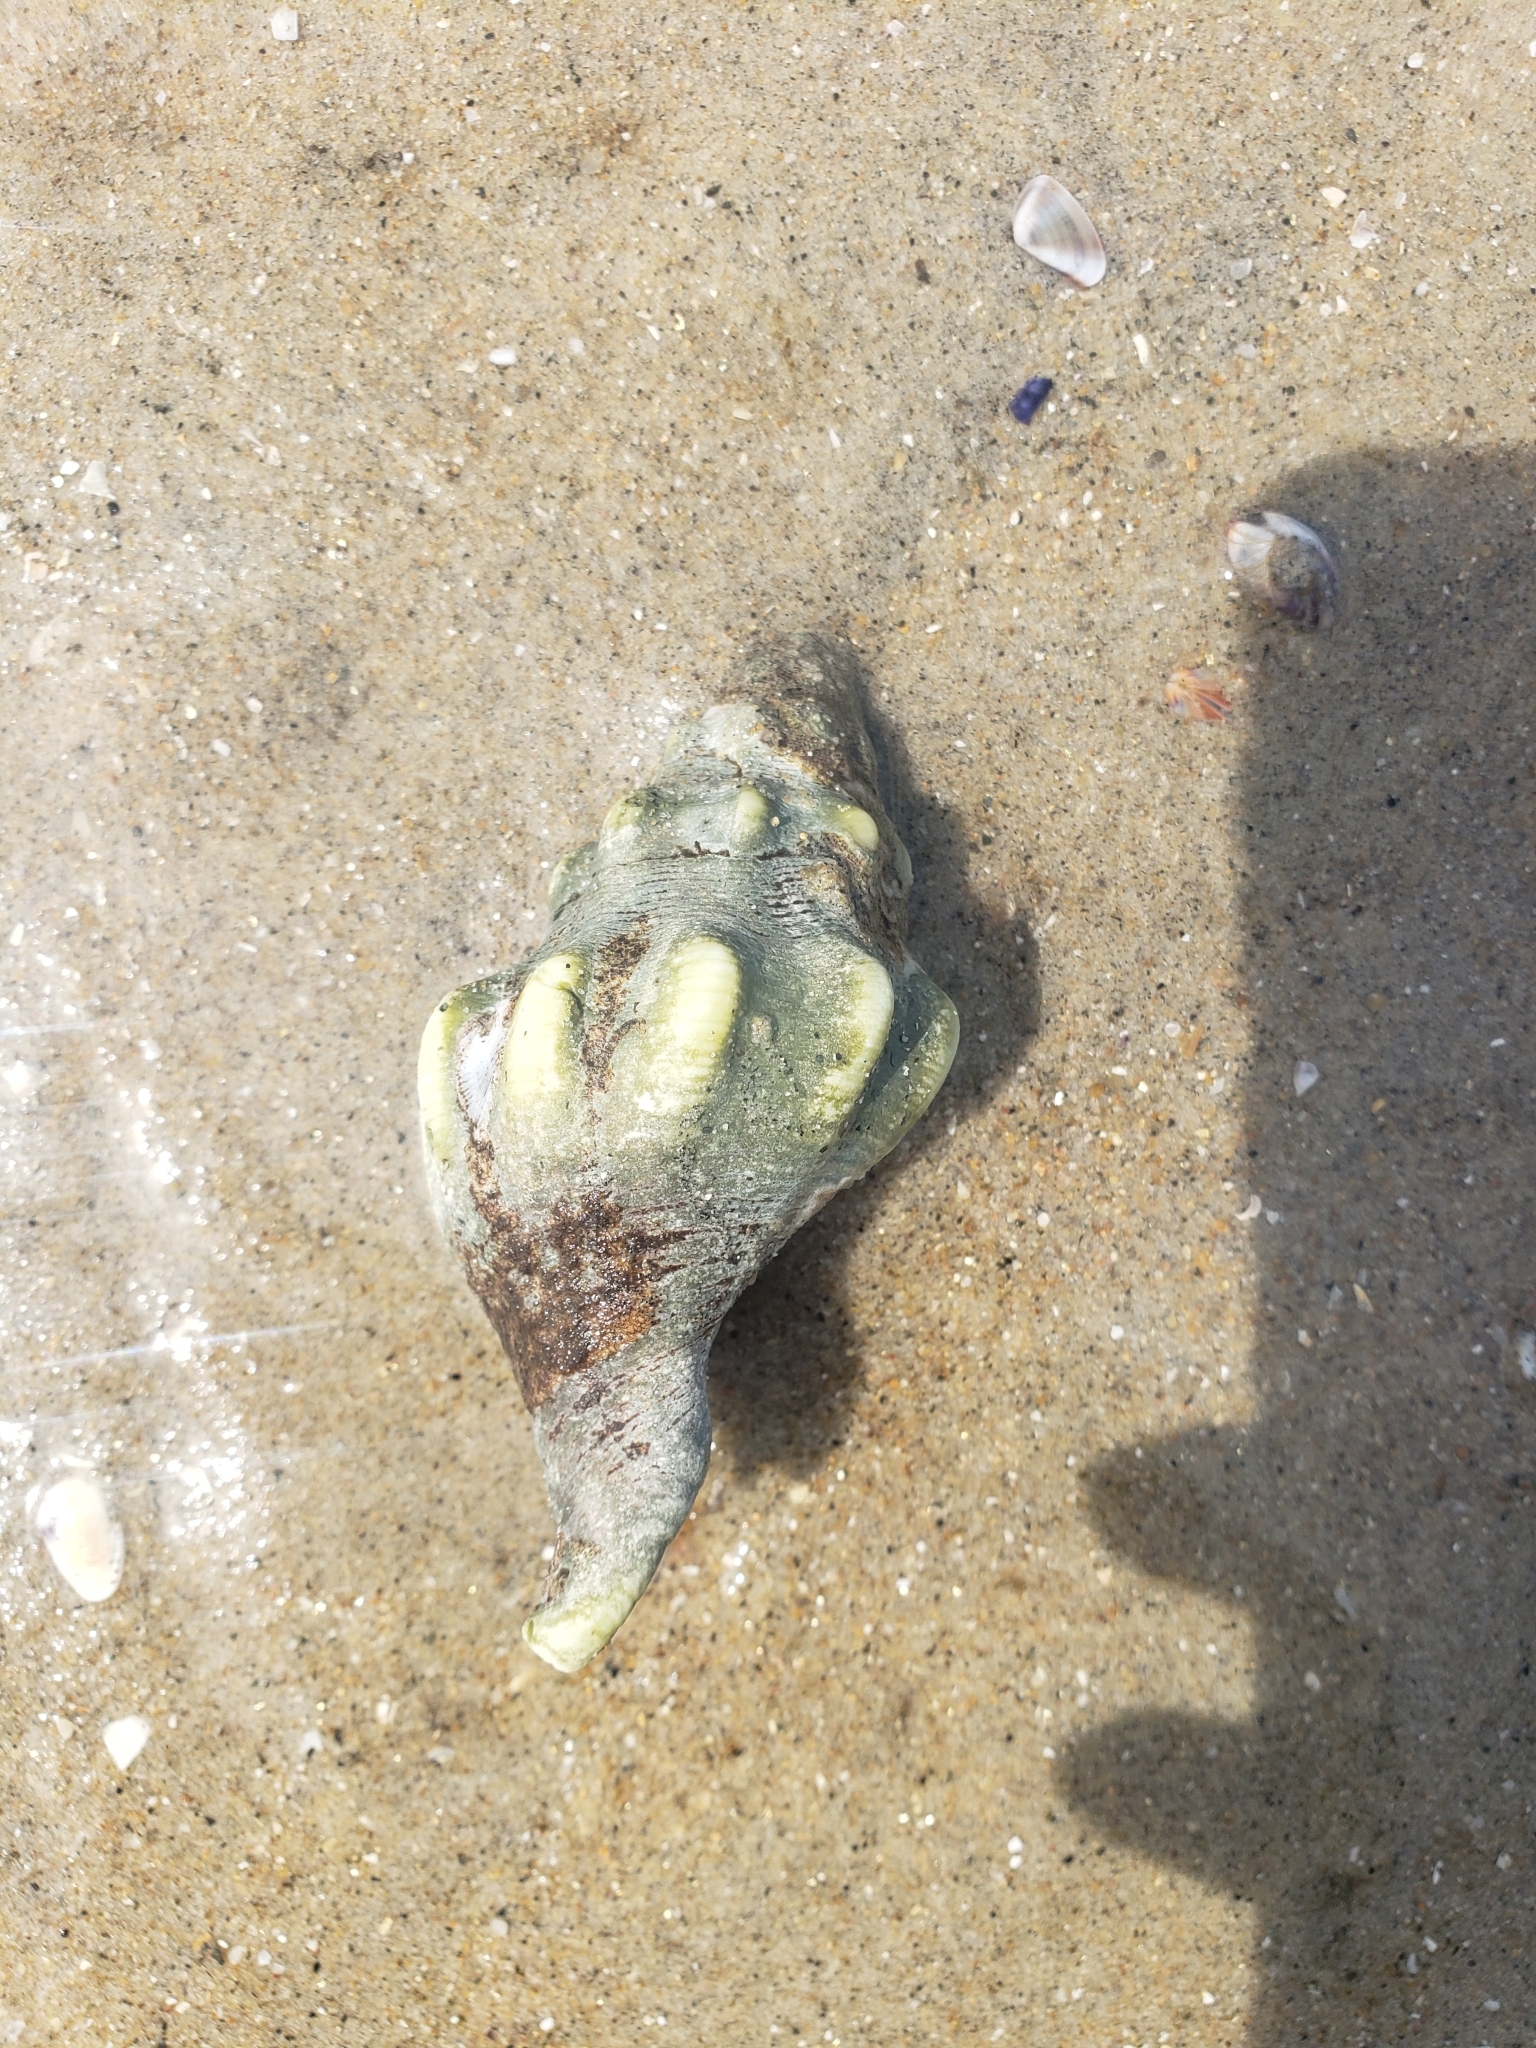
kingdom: Animalia
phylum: Mollusca
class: Gastropoda
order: Neogastropoda
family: Austrosiphonidae
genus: Kelletia
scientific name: Kelletia kelletii
